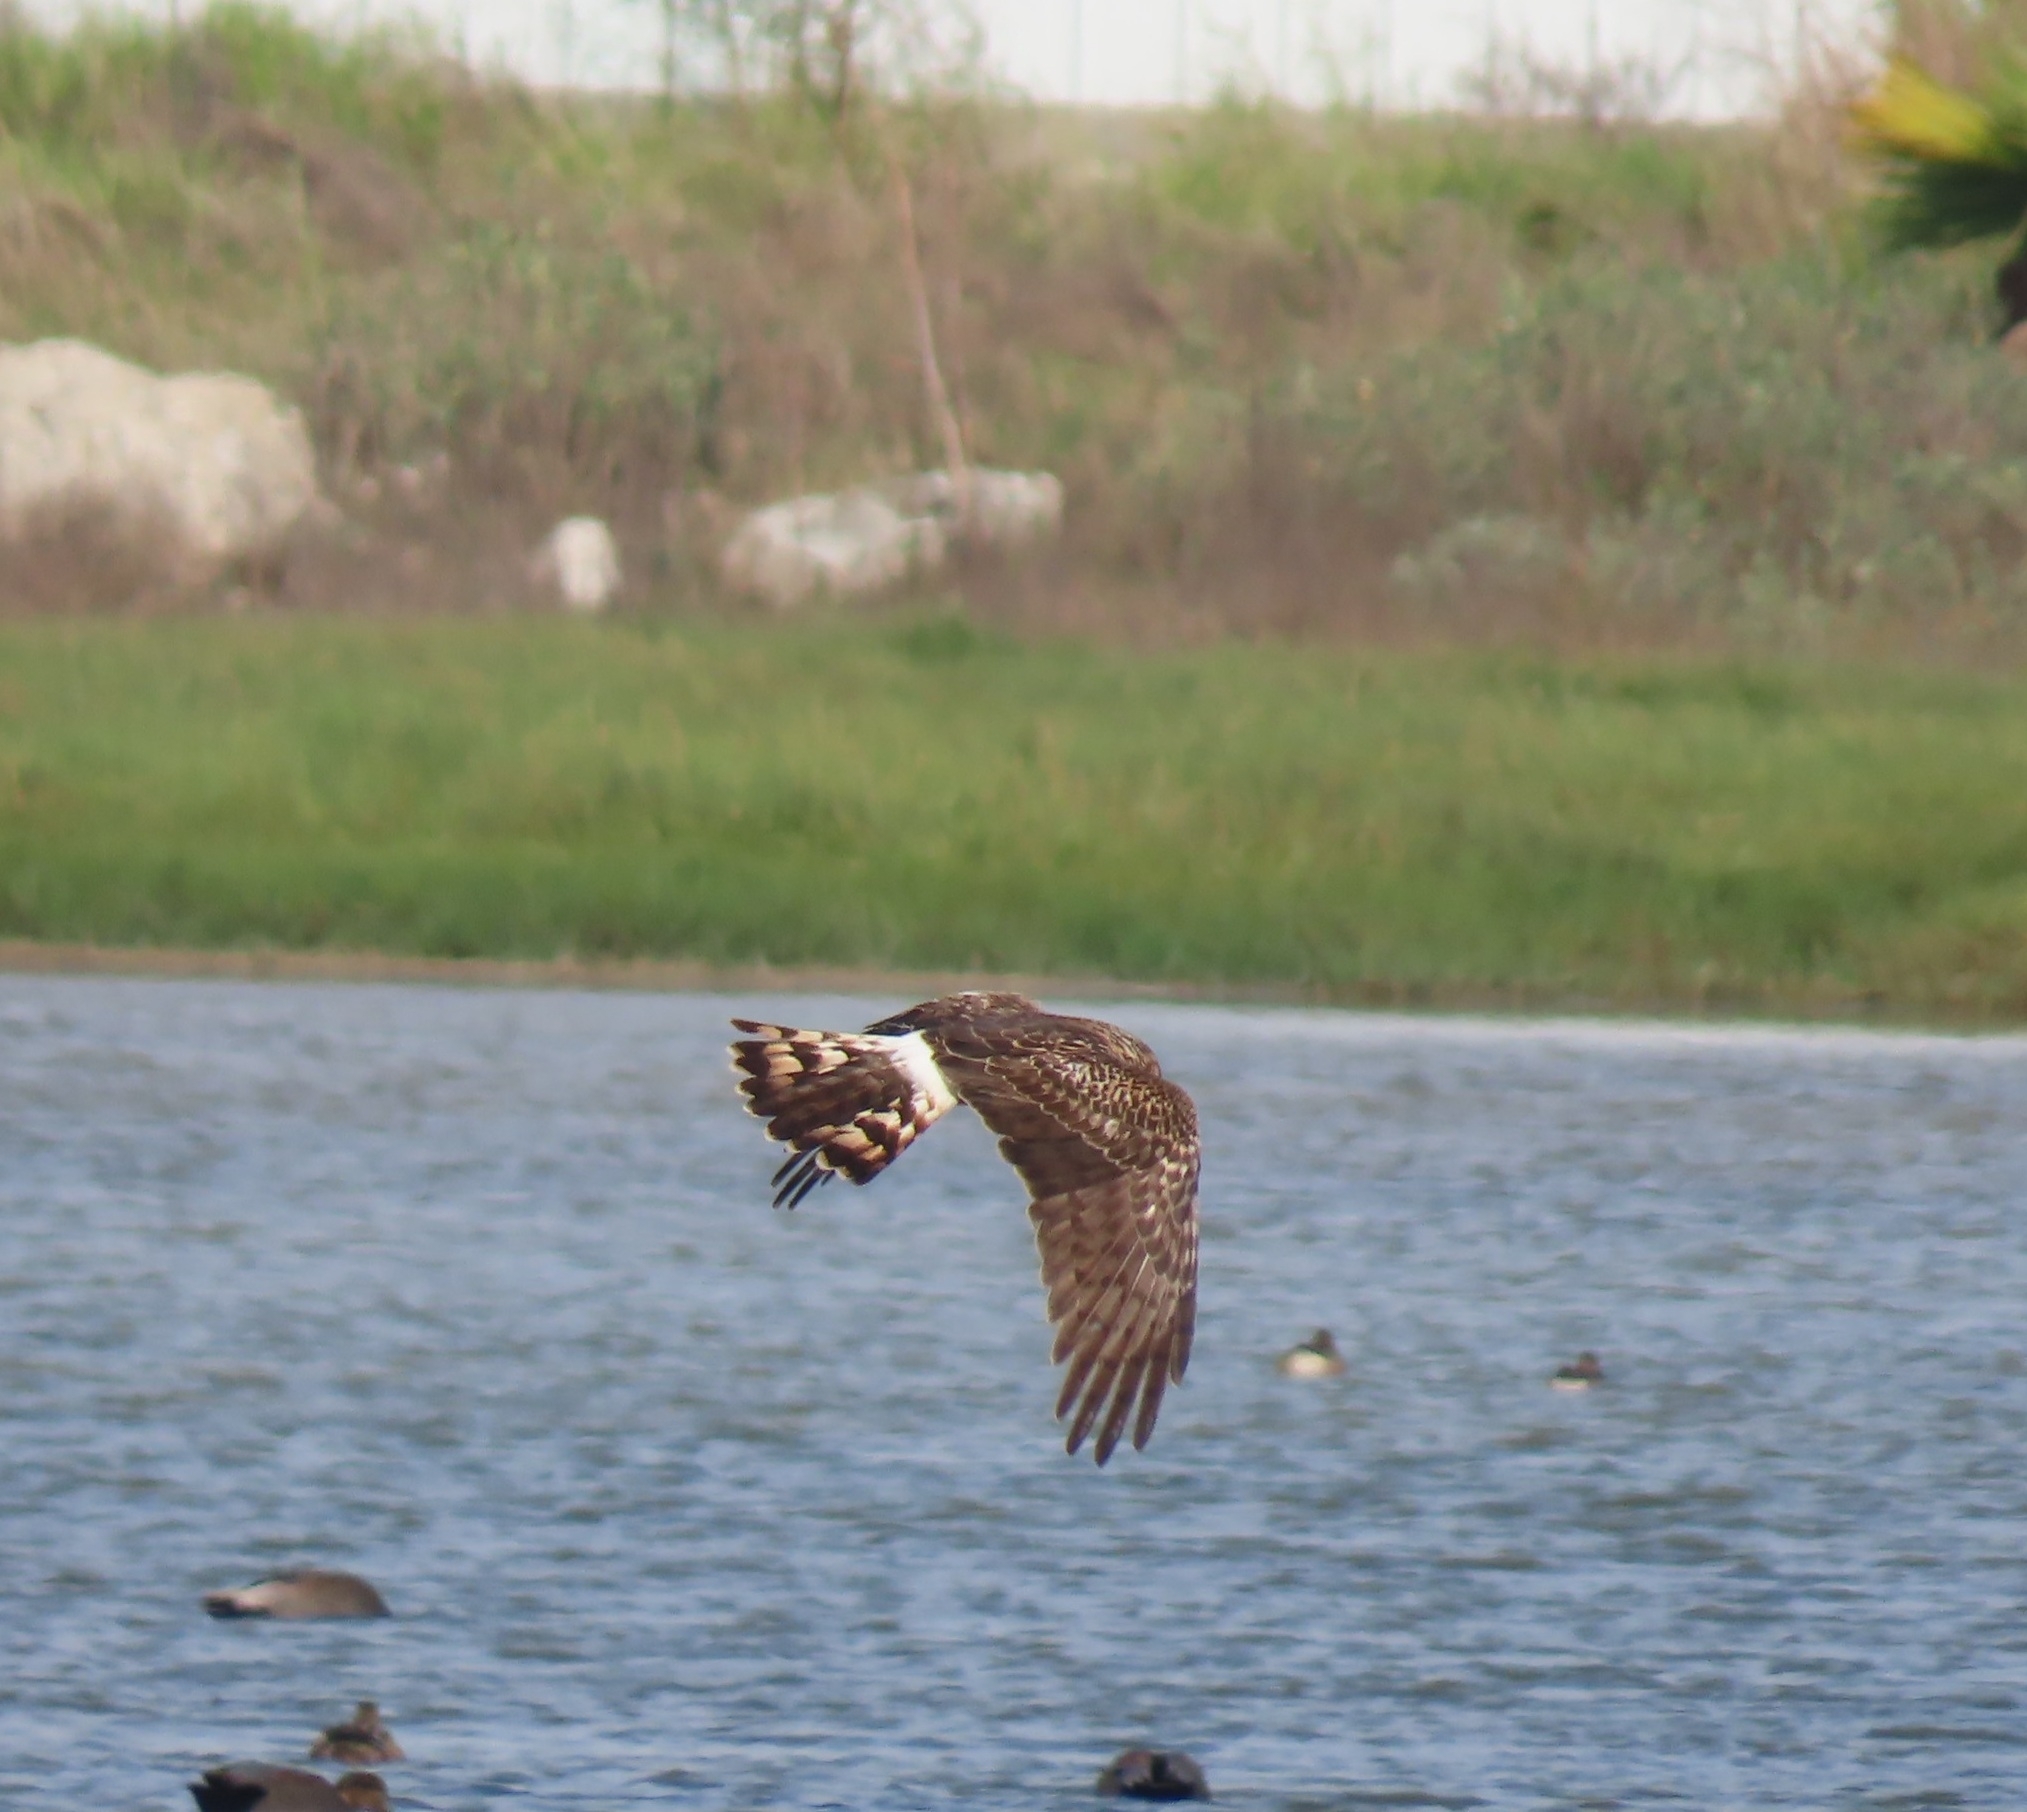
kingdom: Animalia
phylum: Chordata
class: Aves
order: Accipitriformes
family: Accipitridae
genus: Circus
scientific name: Circus cyaneus
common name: Hen harrier
